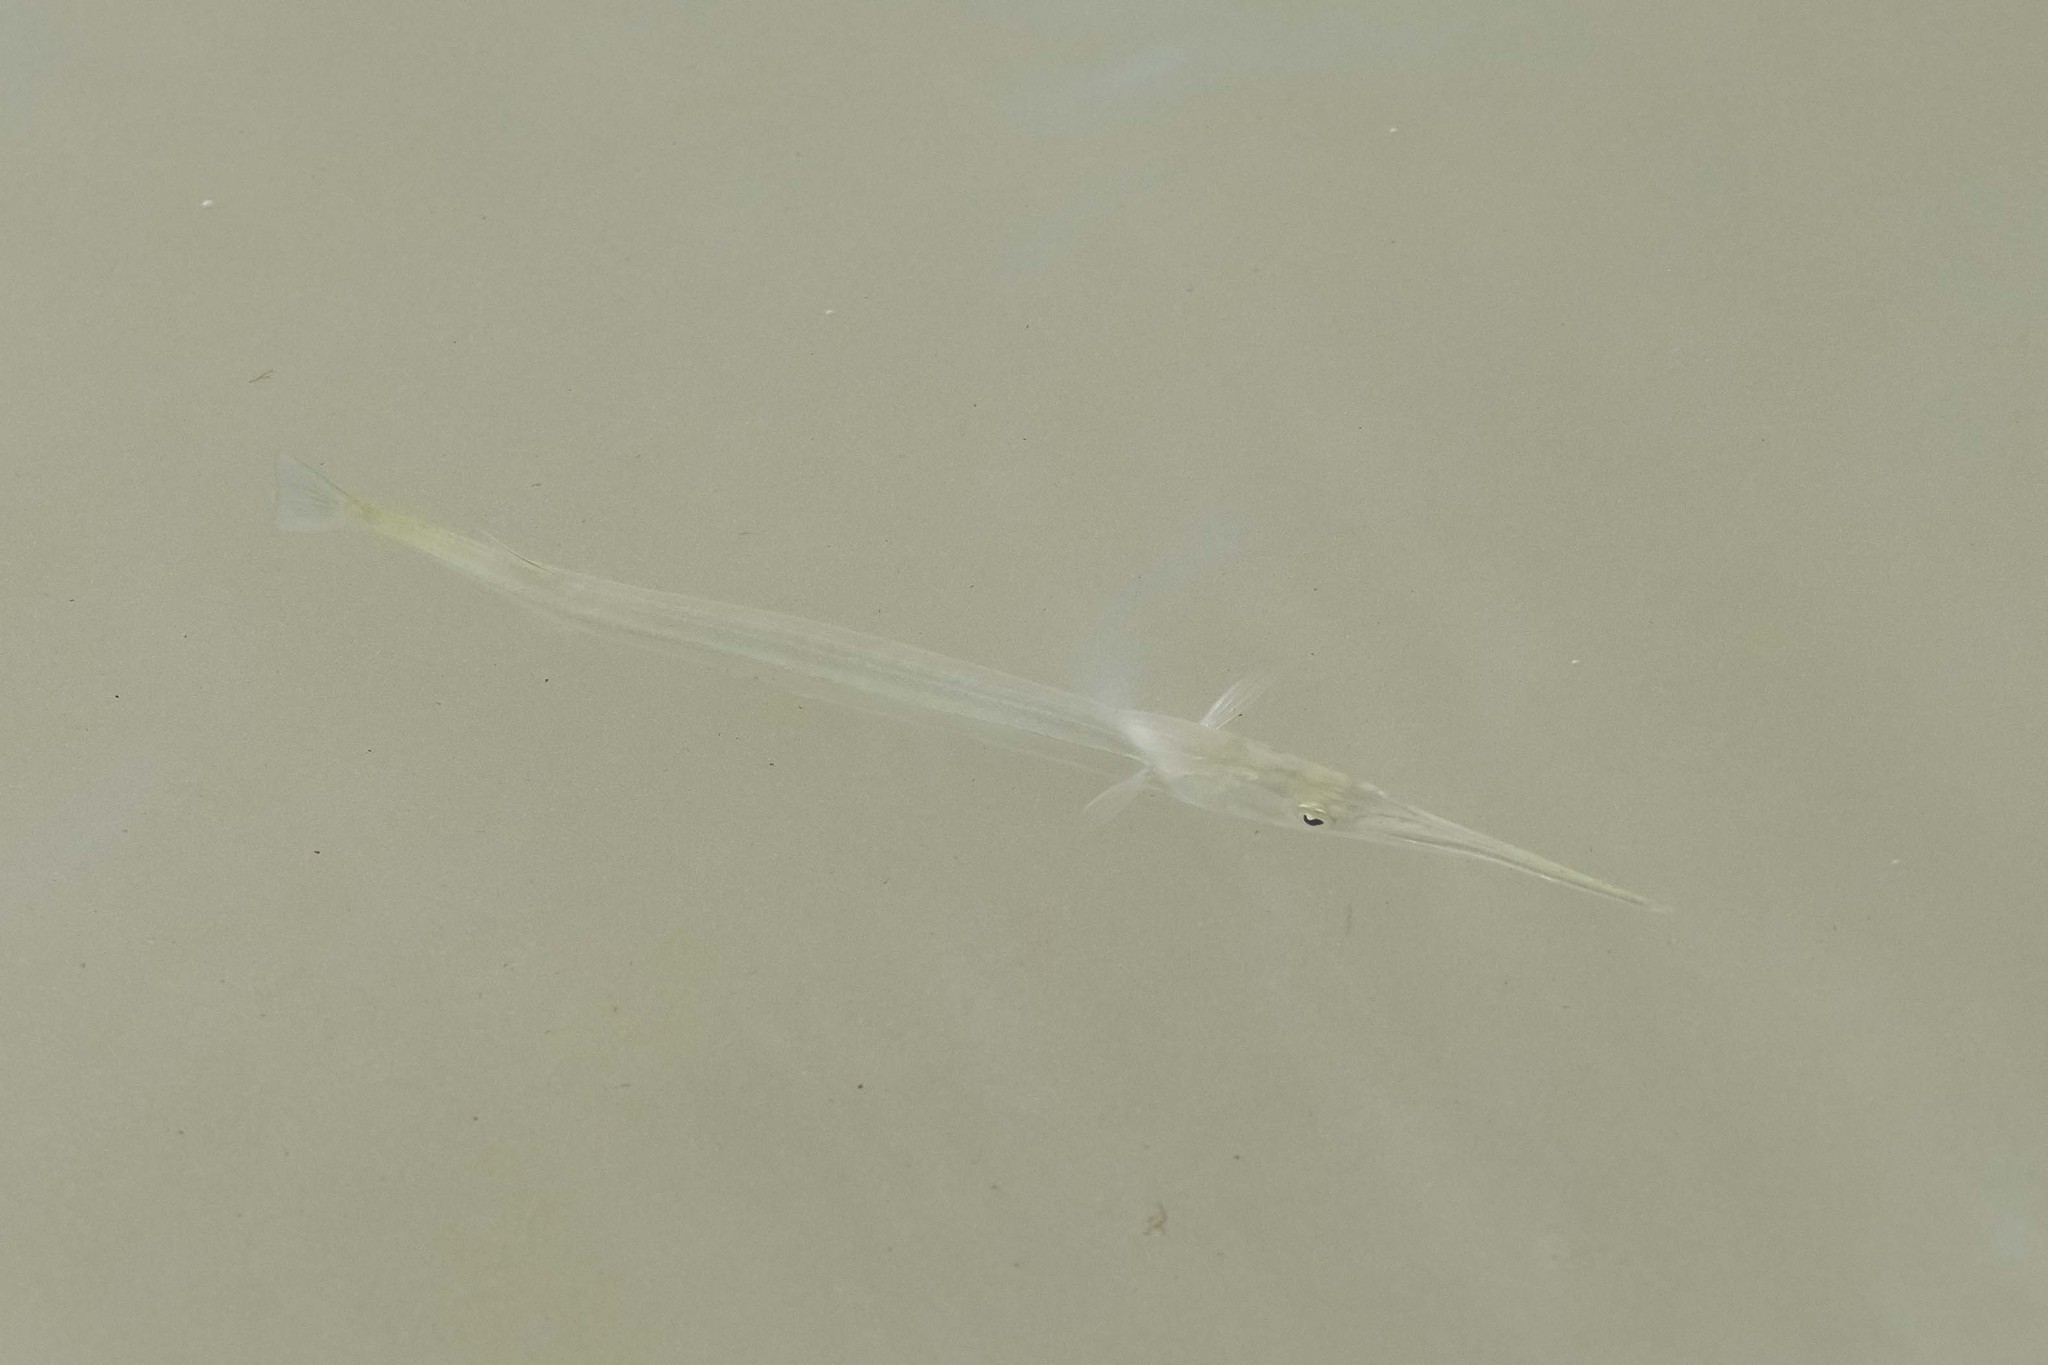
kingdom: Animalia
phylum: Chordata
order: Beloniformes
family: Belonidae
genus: Strongylura
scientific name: Strongylura marina
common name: Atlantic needlefish
